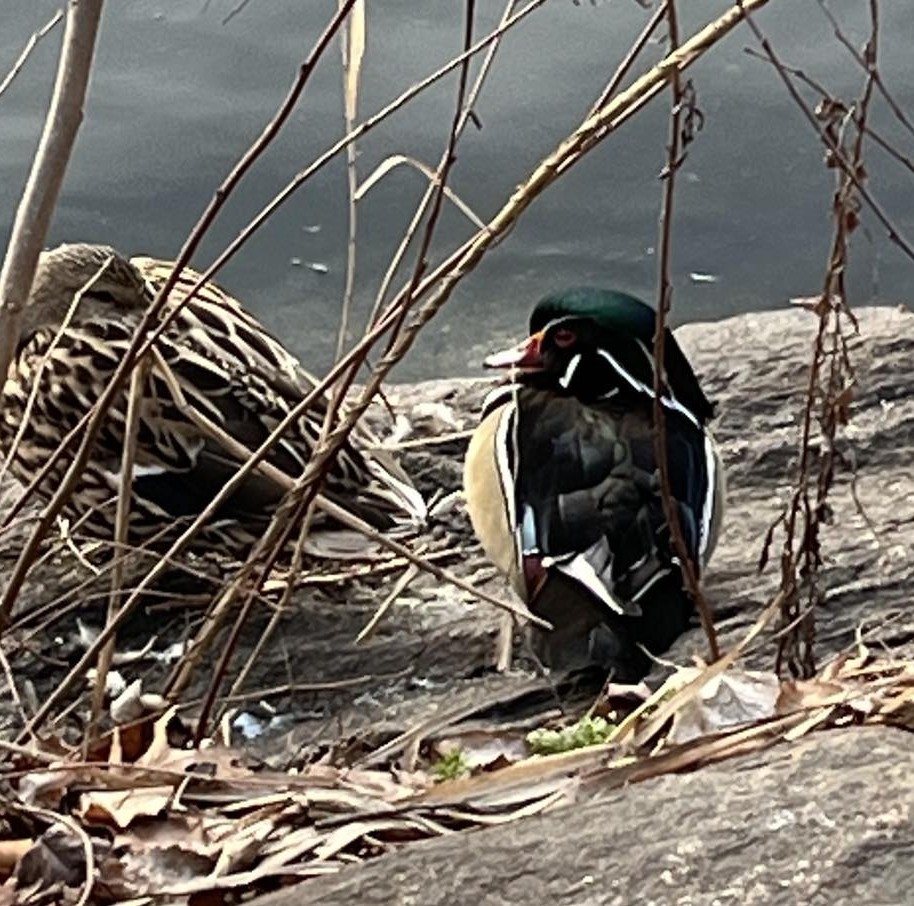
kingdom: Animalia
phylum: Chordata
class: Aves
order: Anseriformes
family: Anatidae
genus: Anas
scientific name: Anas platyrhynchos
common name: Mallard
